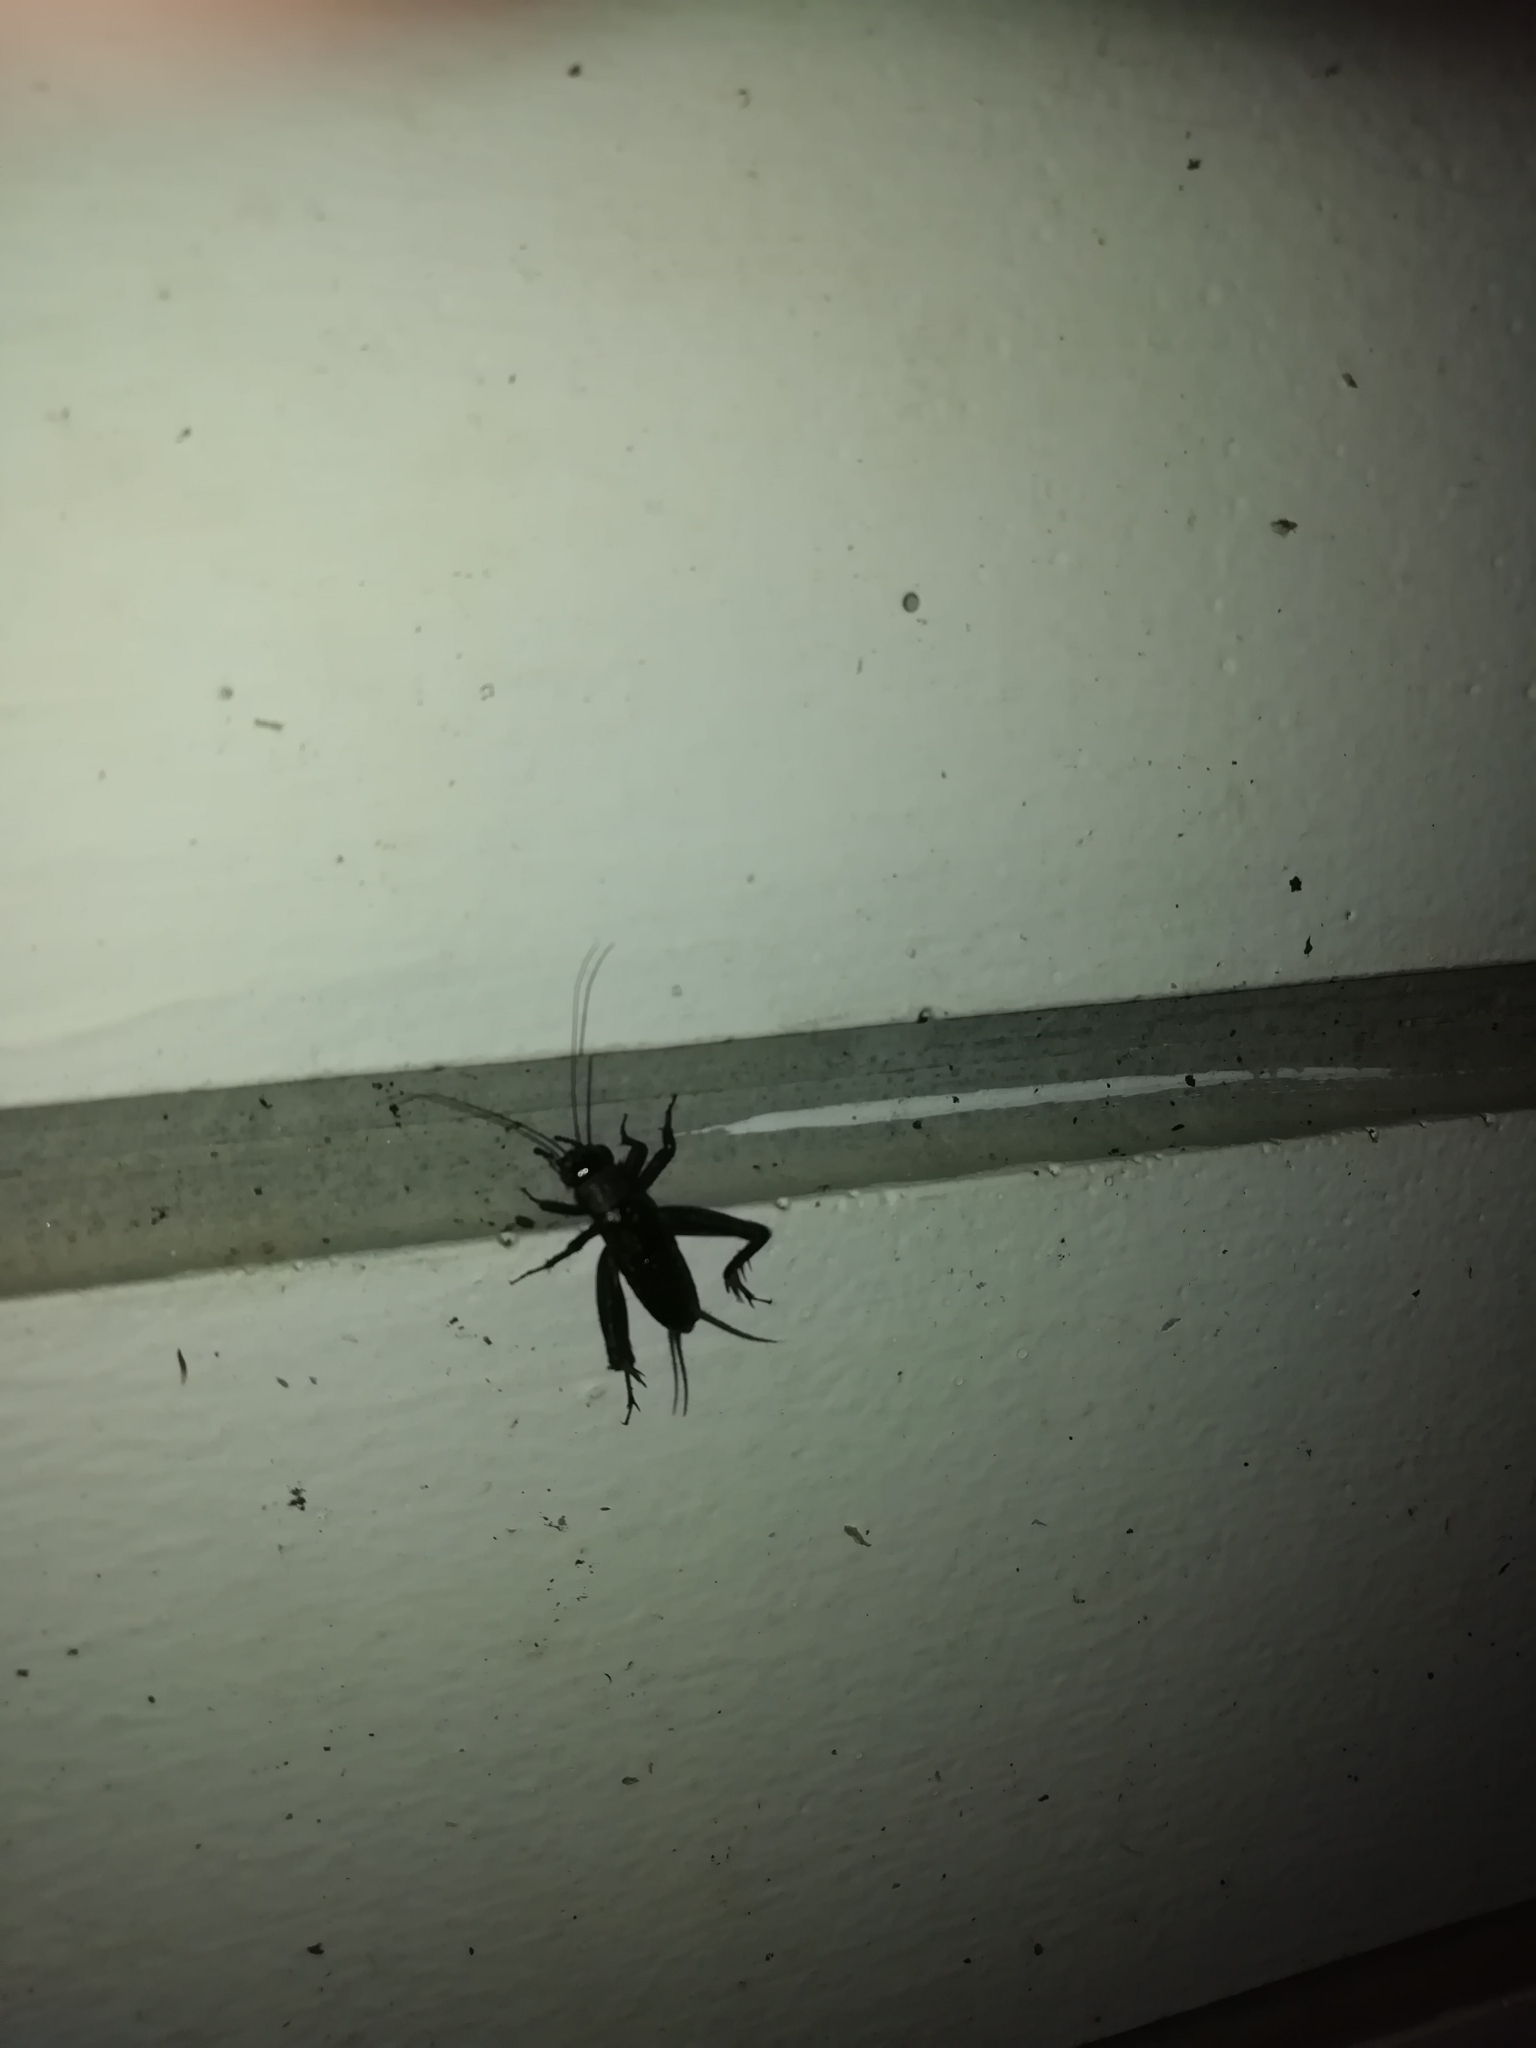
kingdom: Animalia
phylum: Arthropoda
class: Insecta
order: Orthoptera
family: Trigonidiidae
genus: Nemobius
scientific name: Nemobius sylvestris
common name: Wood-cricket
